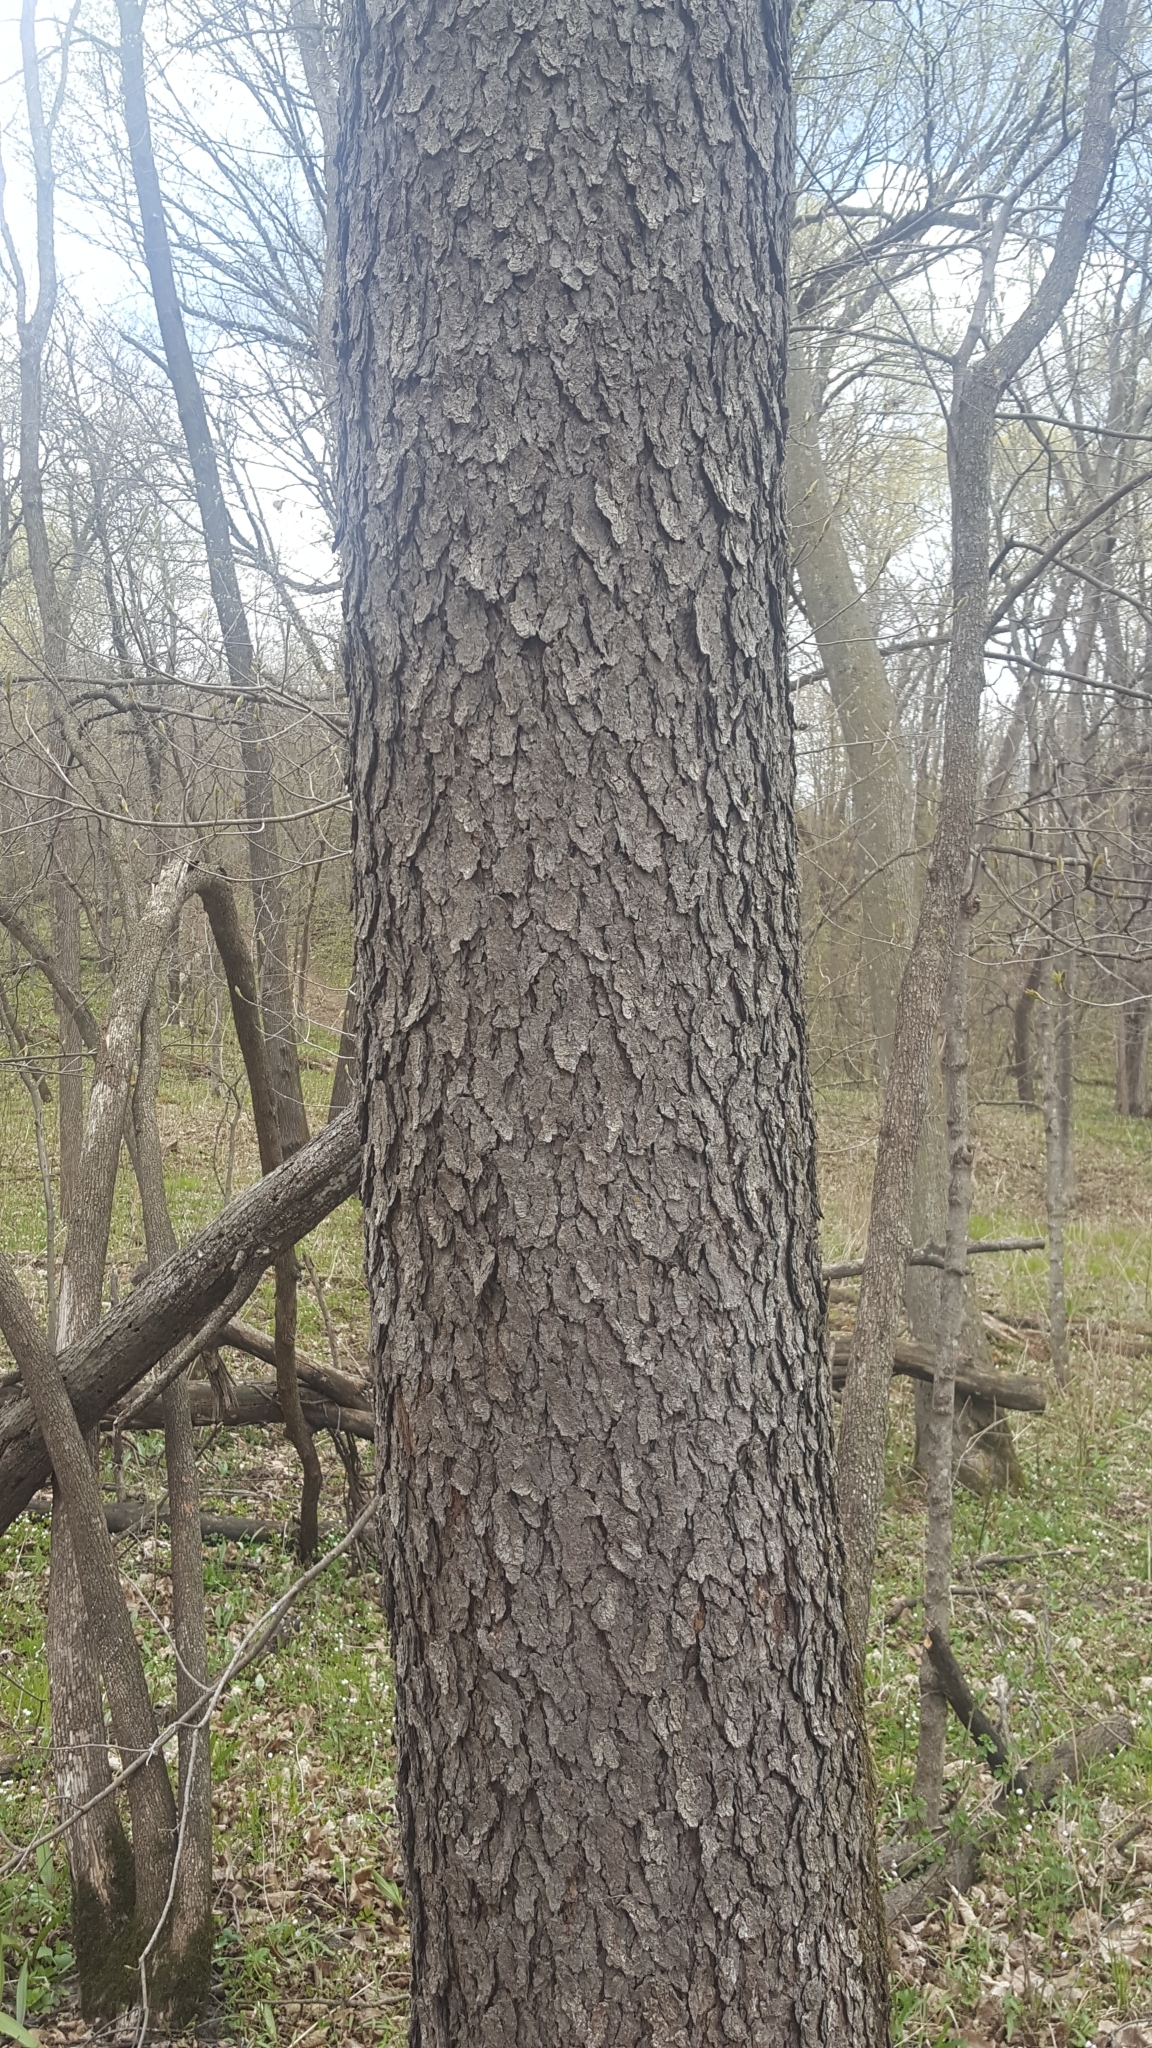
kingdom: Plantae
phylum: Tracheophyta
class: Magnoliopsida
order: Rosales
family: Rosaceae
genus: Prunus
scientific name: Prunus serotina
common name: Black cherry
